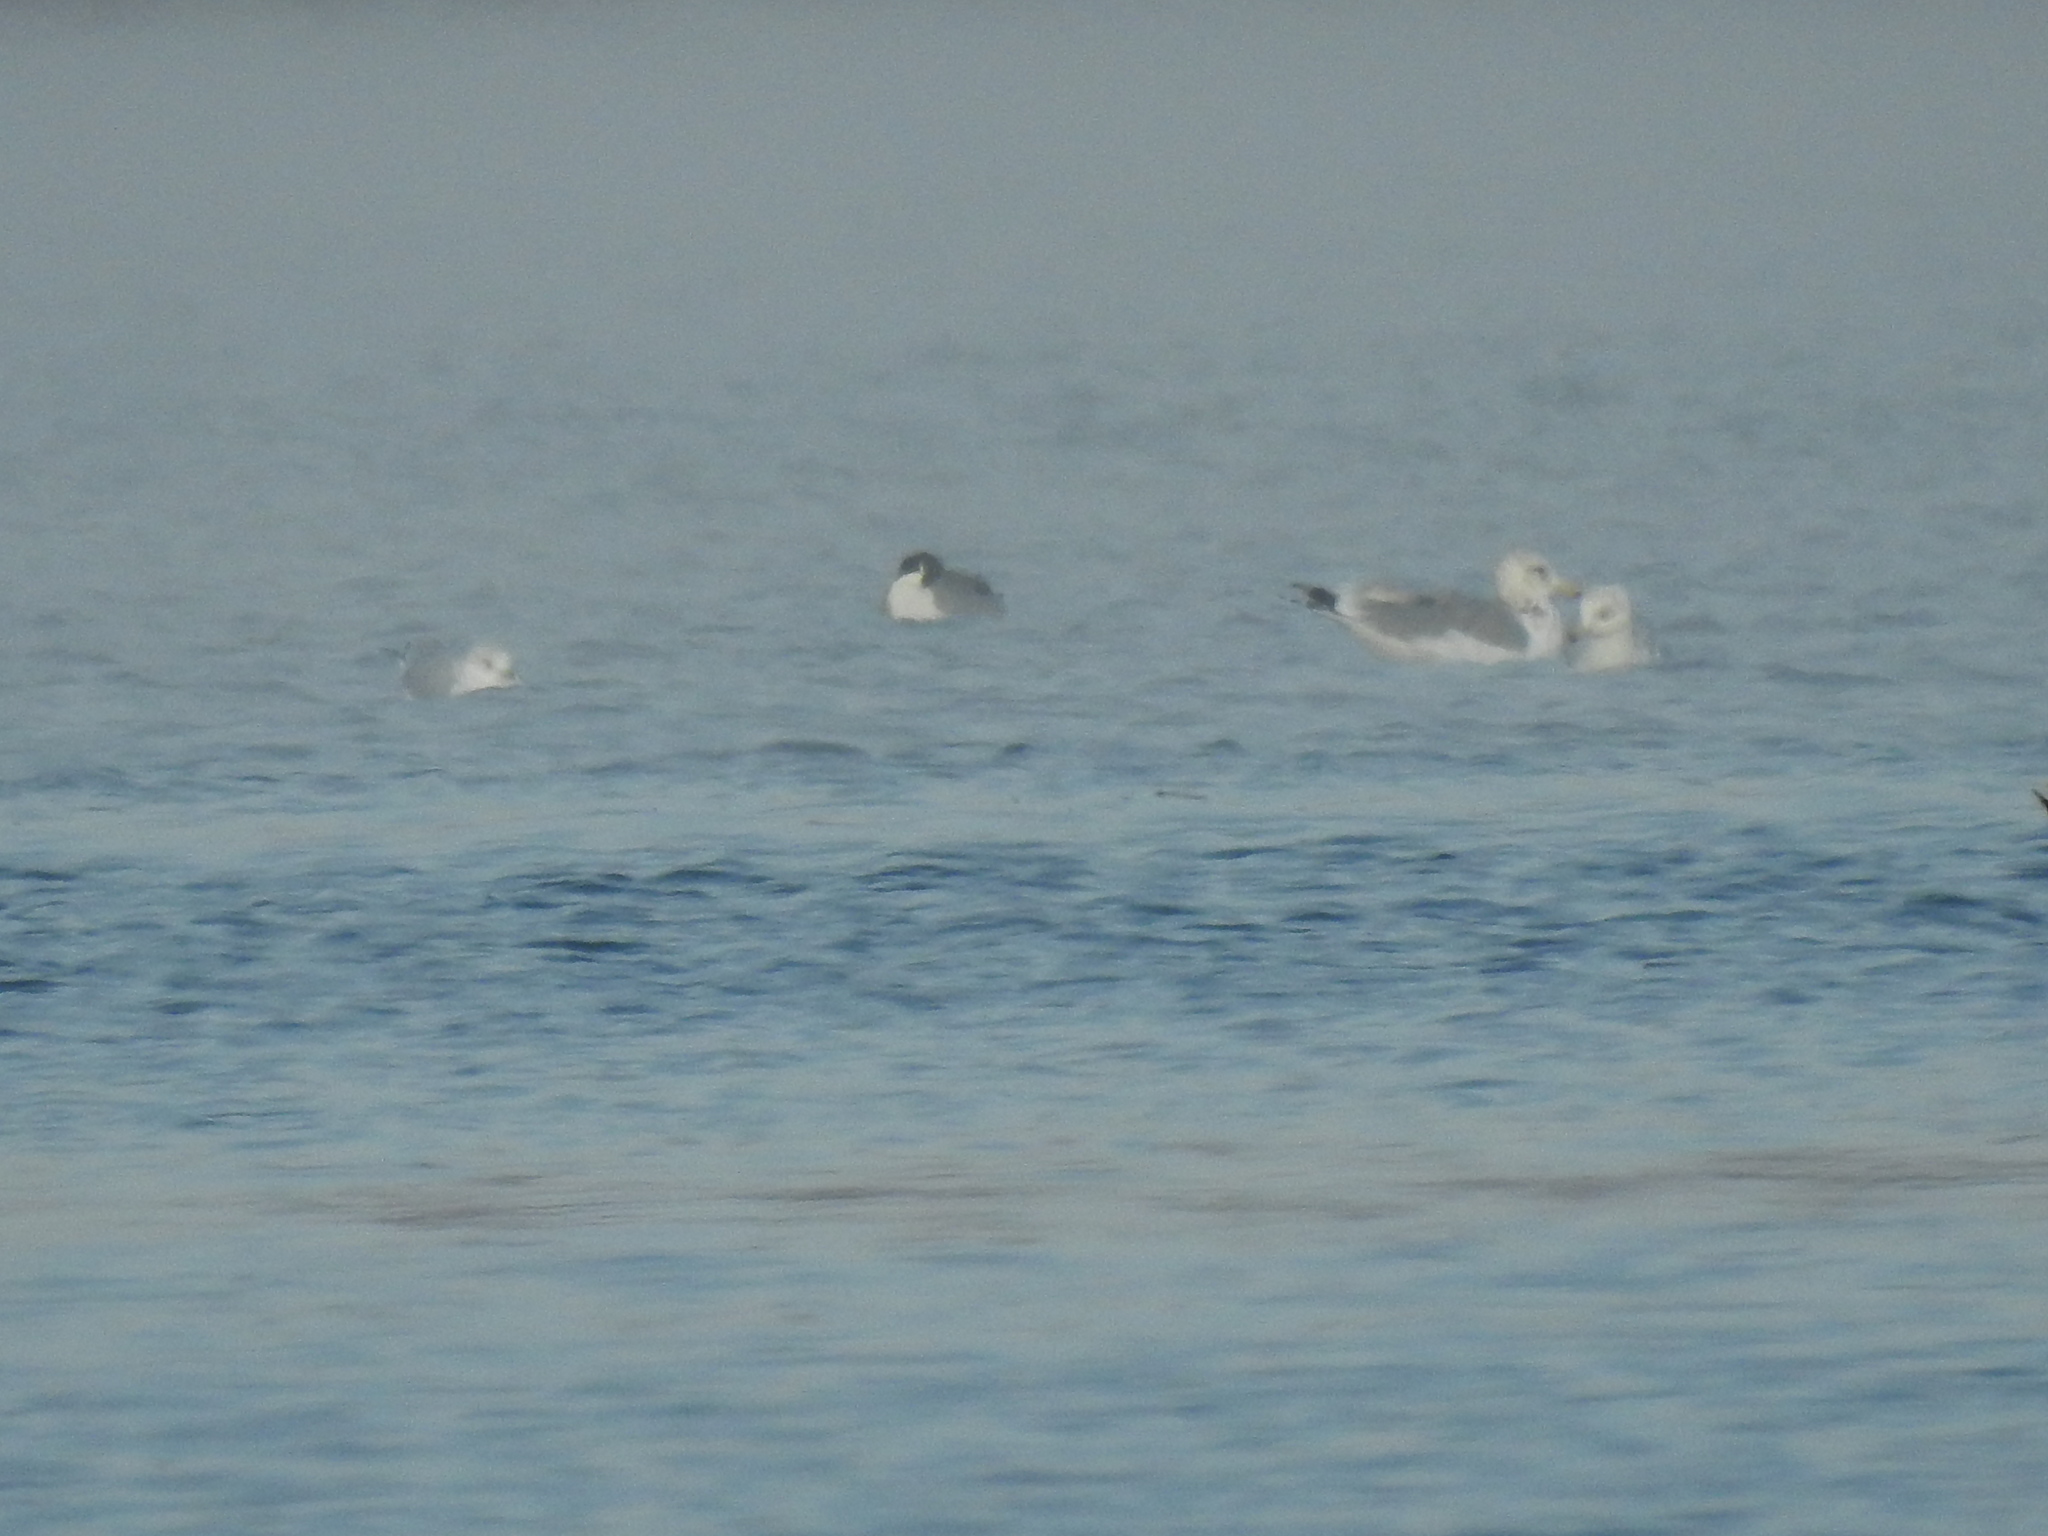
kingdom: Animalia
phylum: Chordata
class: Aves
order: Anseriformes
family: Anatidae
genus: Anas
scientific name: Anas acuta
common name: Northern pintail
